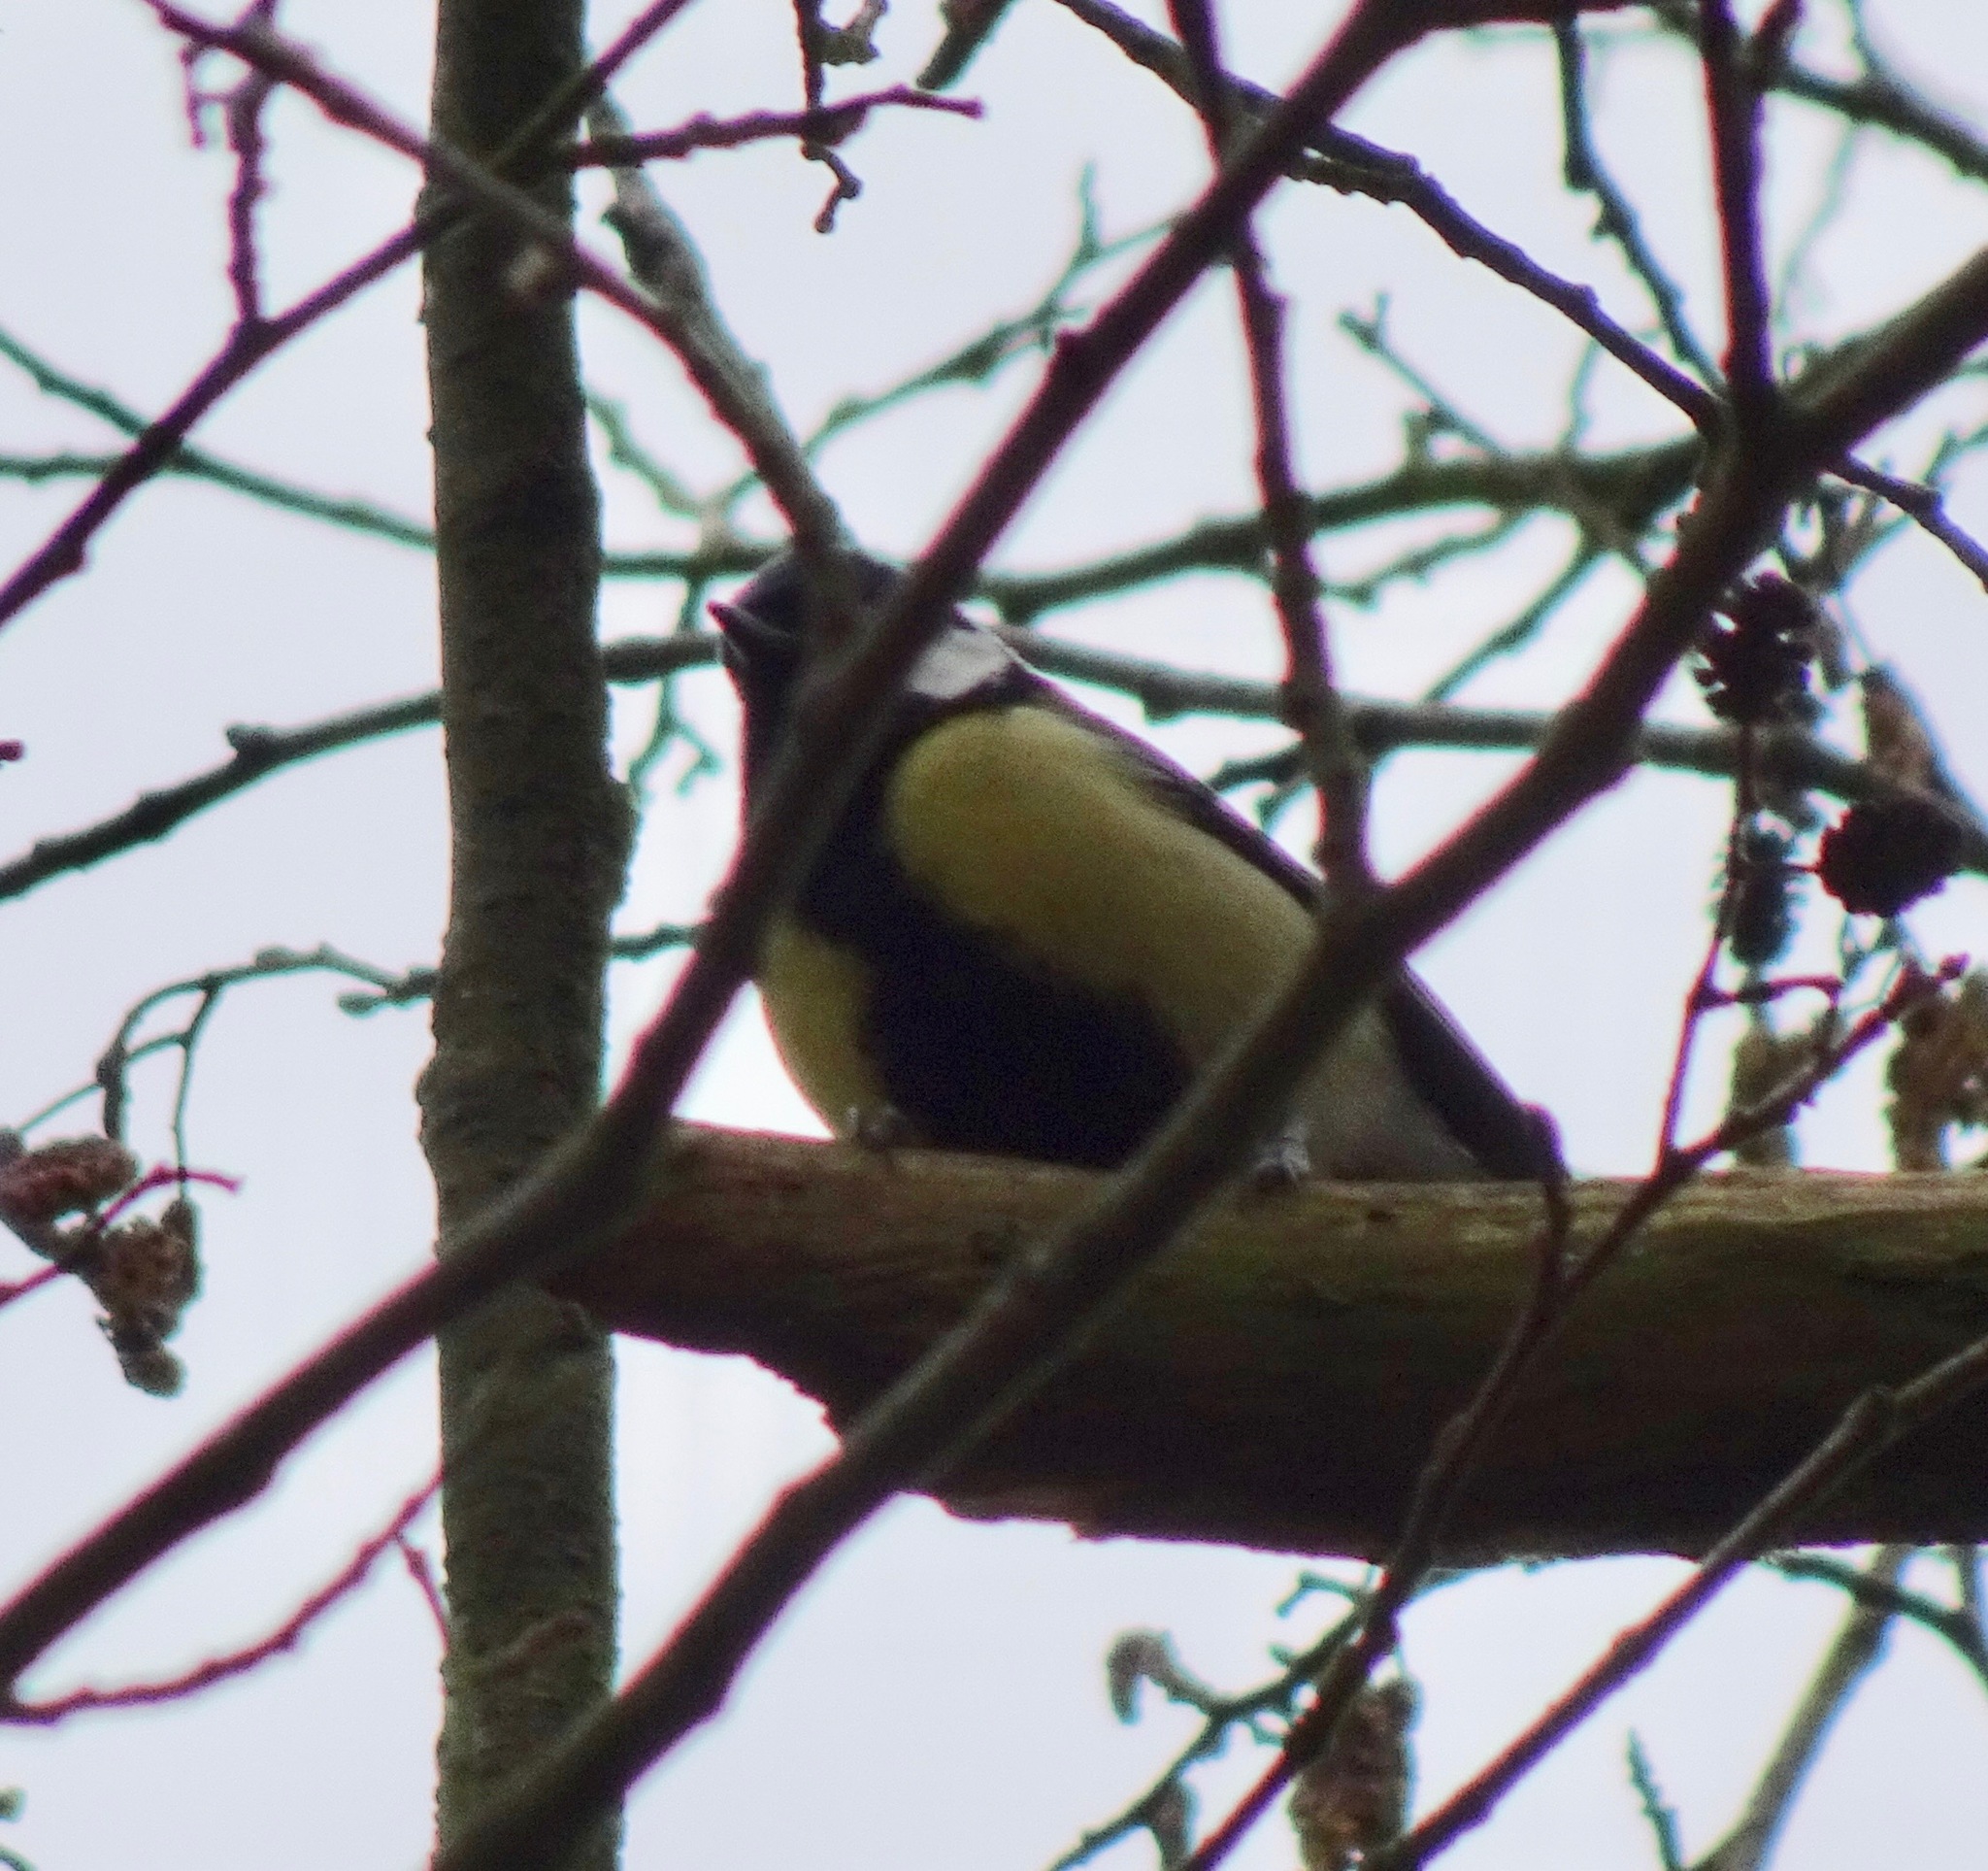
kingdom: Animalia
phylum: Chordata
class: Aves
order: Passeriformes
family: Paridae
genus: Parus
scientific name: Parus major
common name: Great tit
